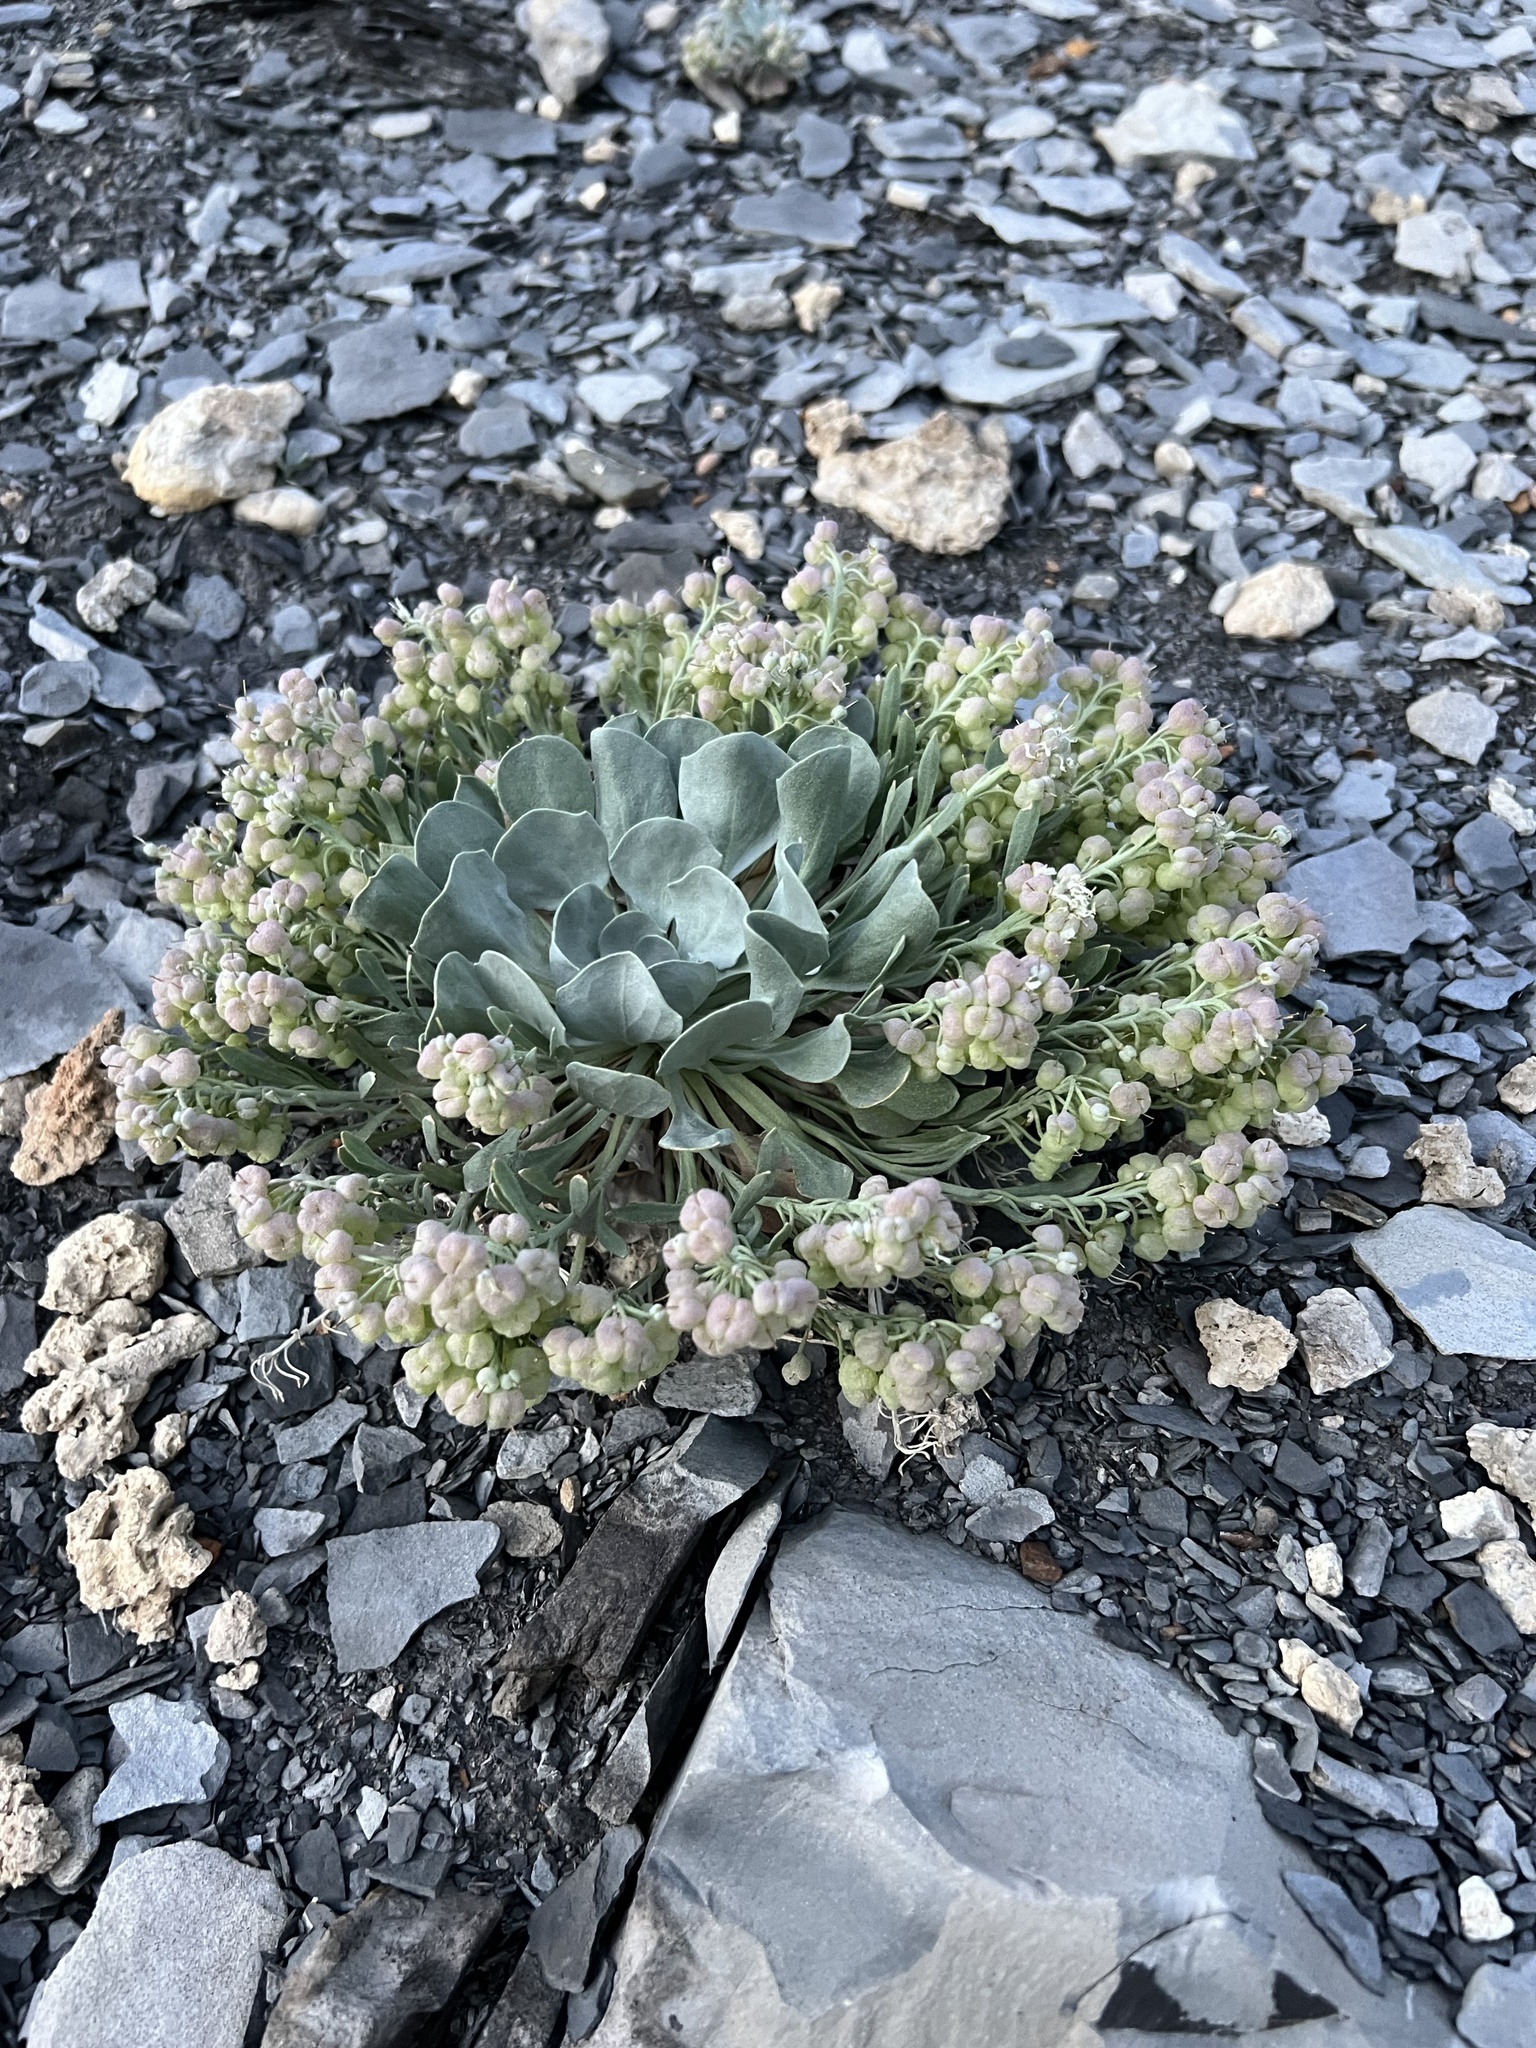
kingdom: Plantae
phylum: Tracheophyta
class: Magnoliopsida
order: Brassicales
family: Brassicaceae
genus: Physaria
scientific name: Physaria bellii
